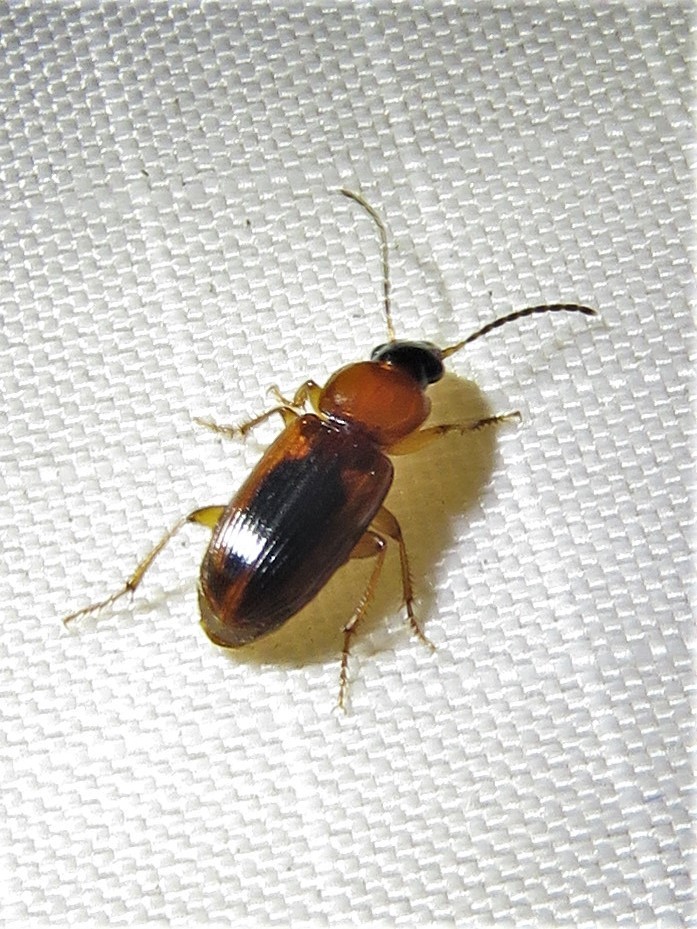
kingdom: Animalia
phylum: Arthropoda
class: Insecta
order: Coleoptera
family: Carabidae
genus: Stenolophus
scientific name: Stenolophus dissimilis
